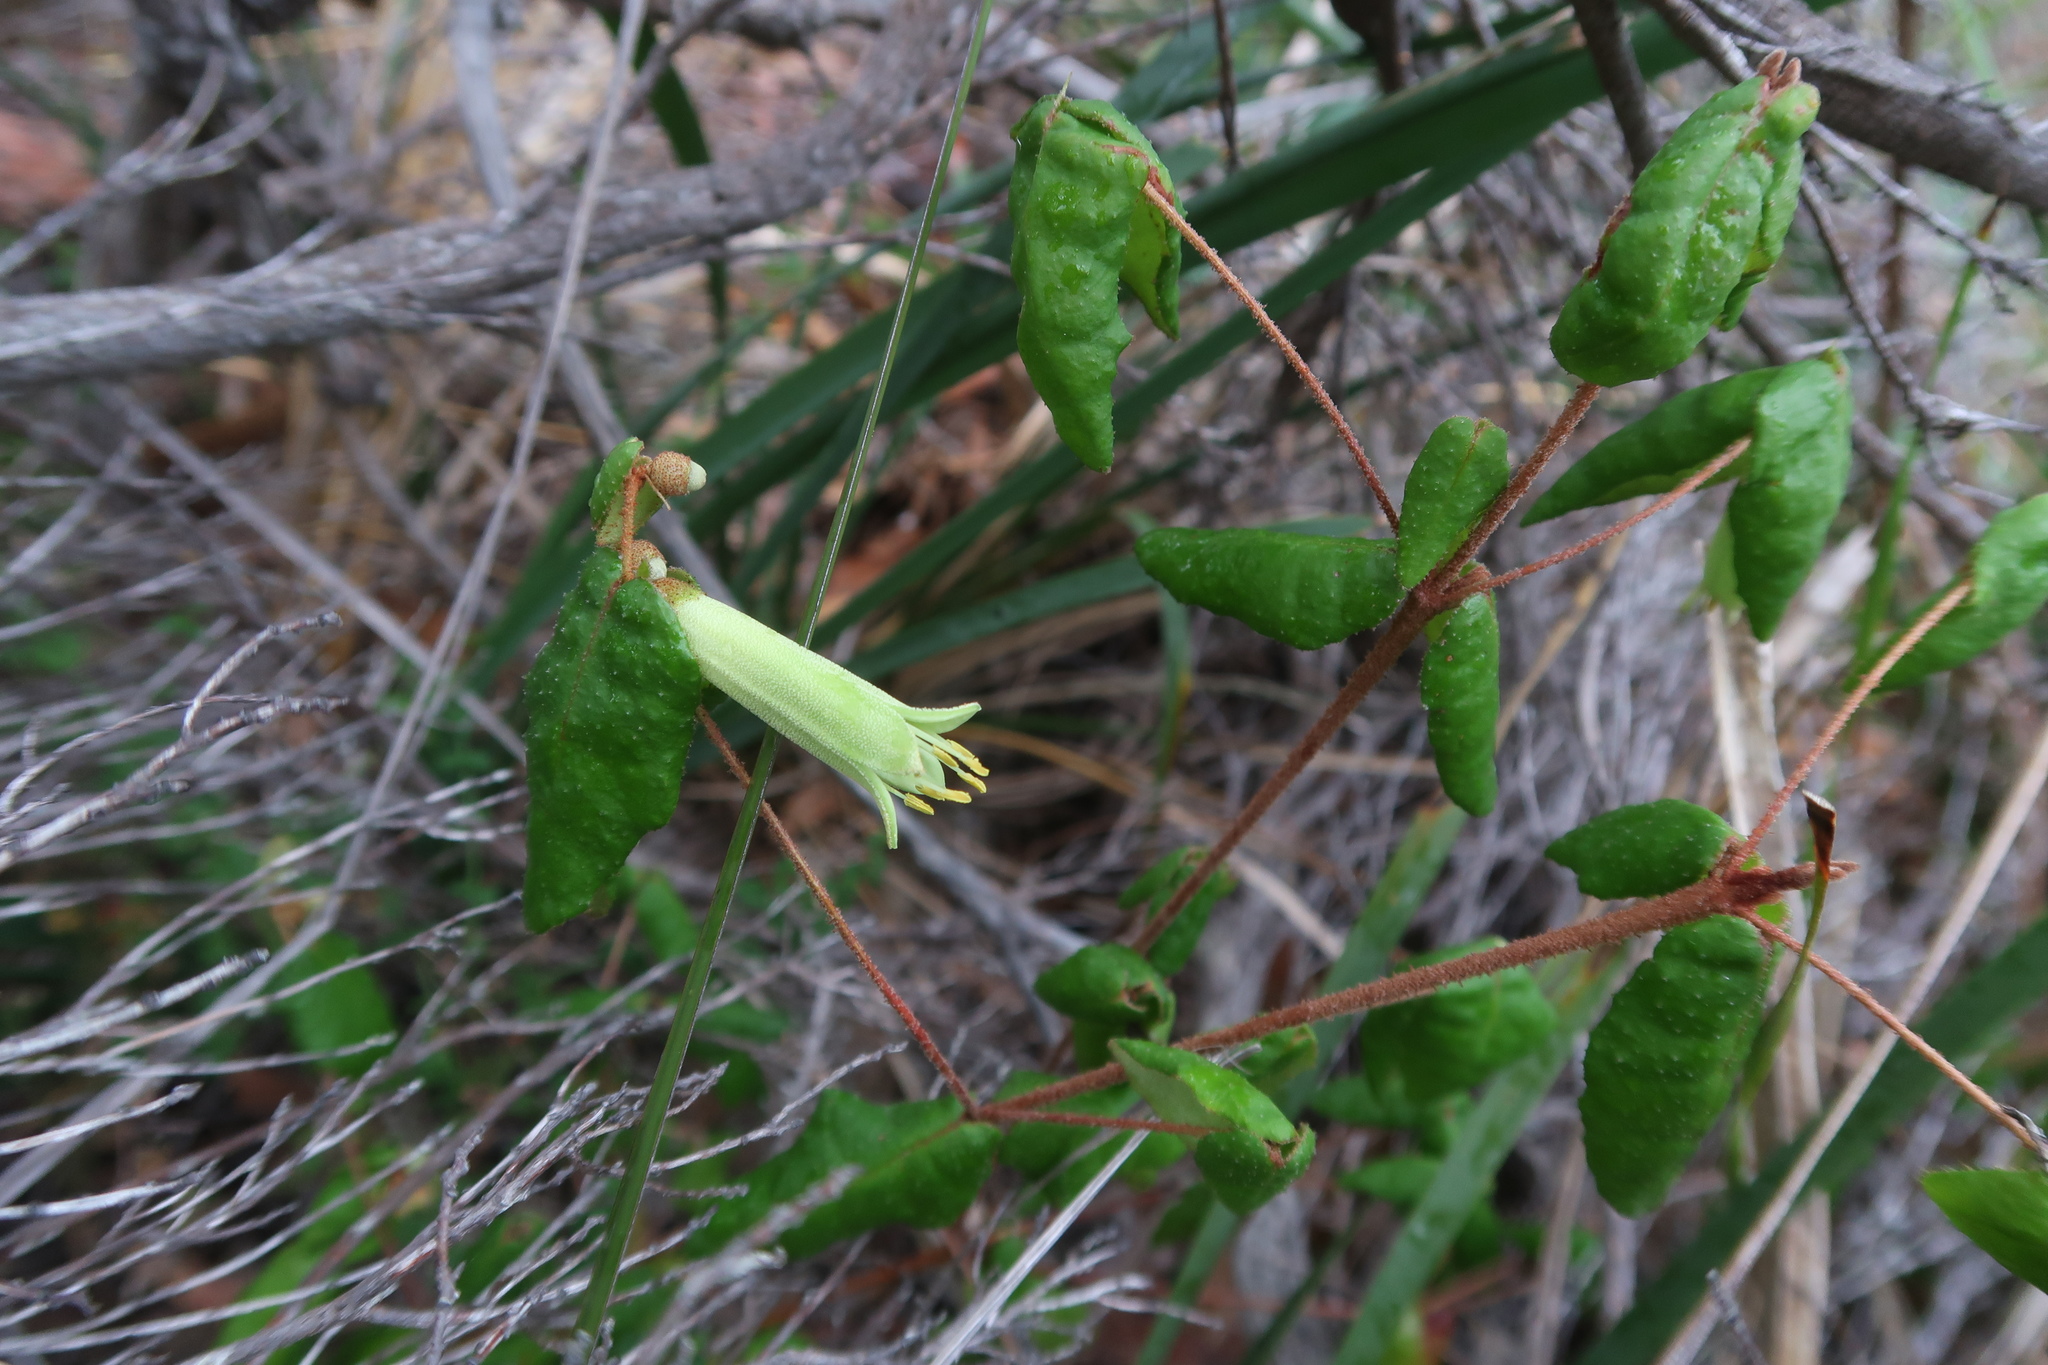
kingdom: Plantae
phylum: Tracheophyta
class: Magnoliopsida
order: Sapindales
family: Rutaceae
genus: Correa
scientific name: Correa reflexa
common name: Common correa
